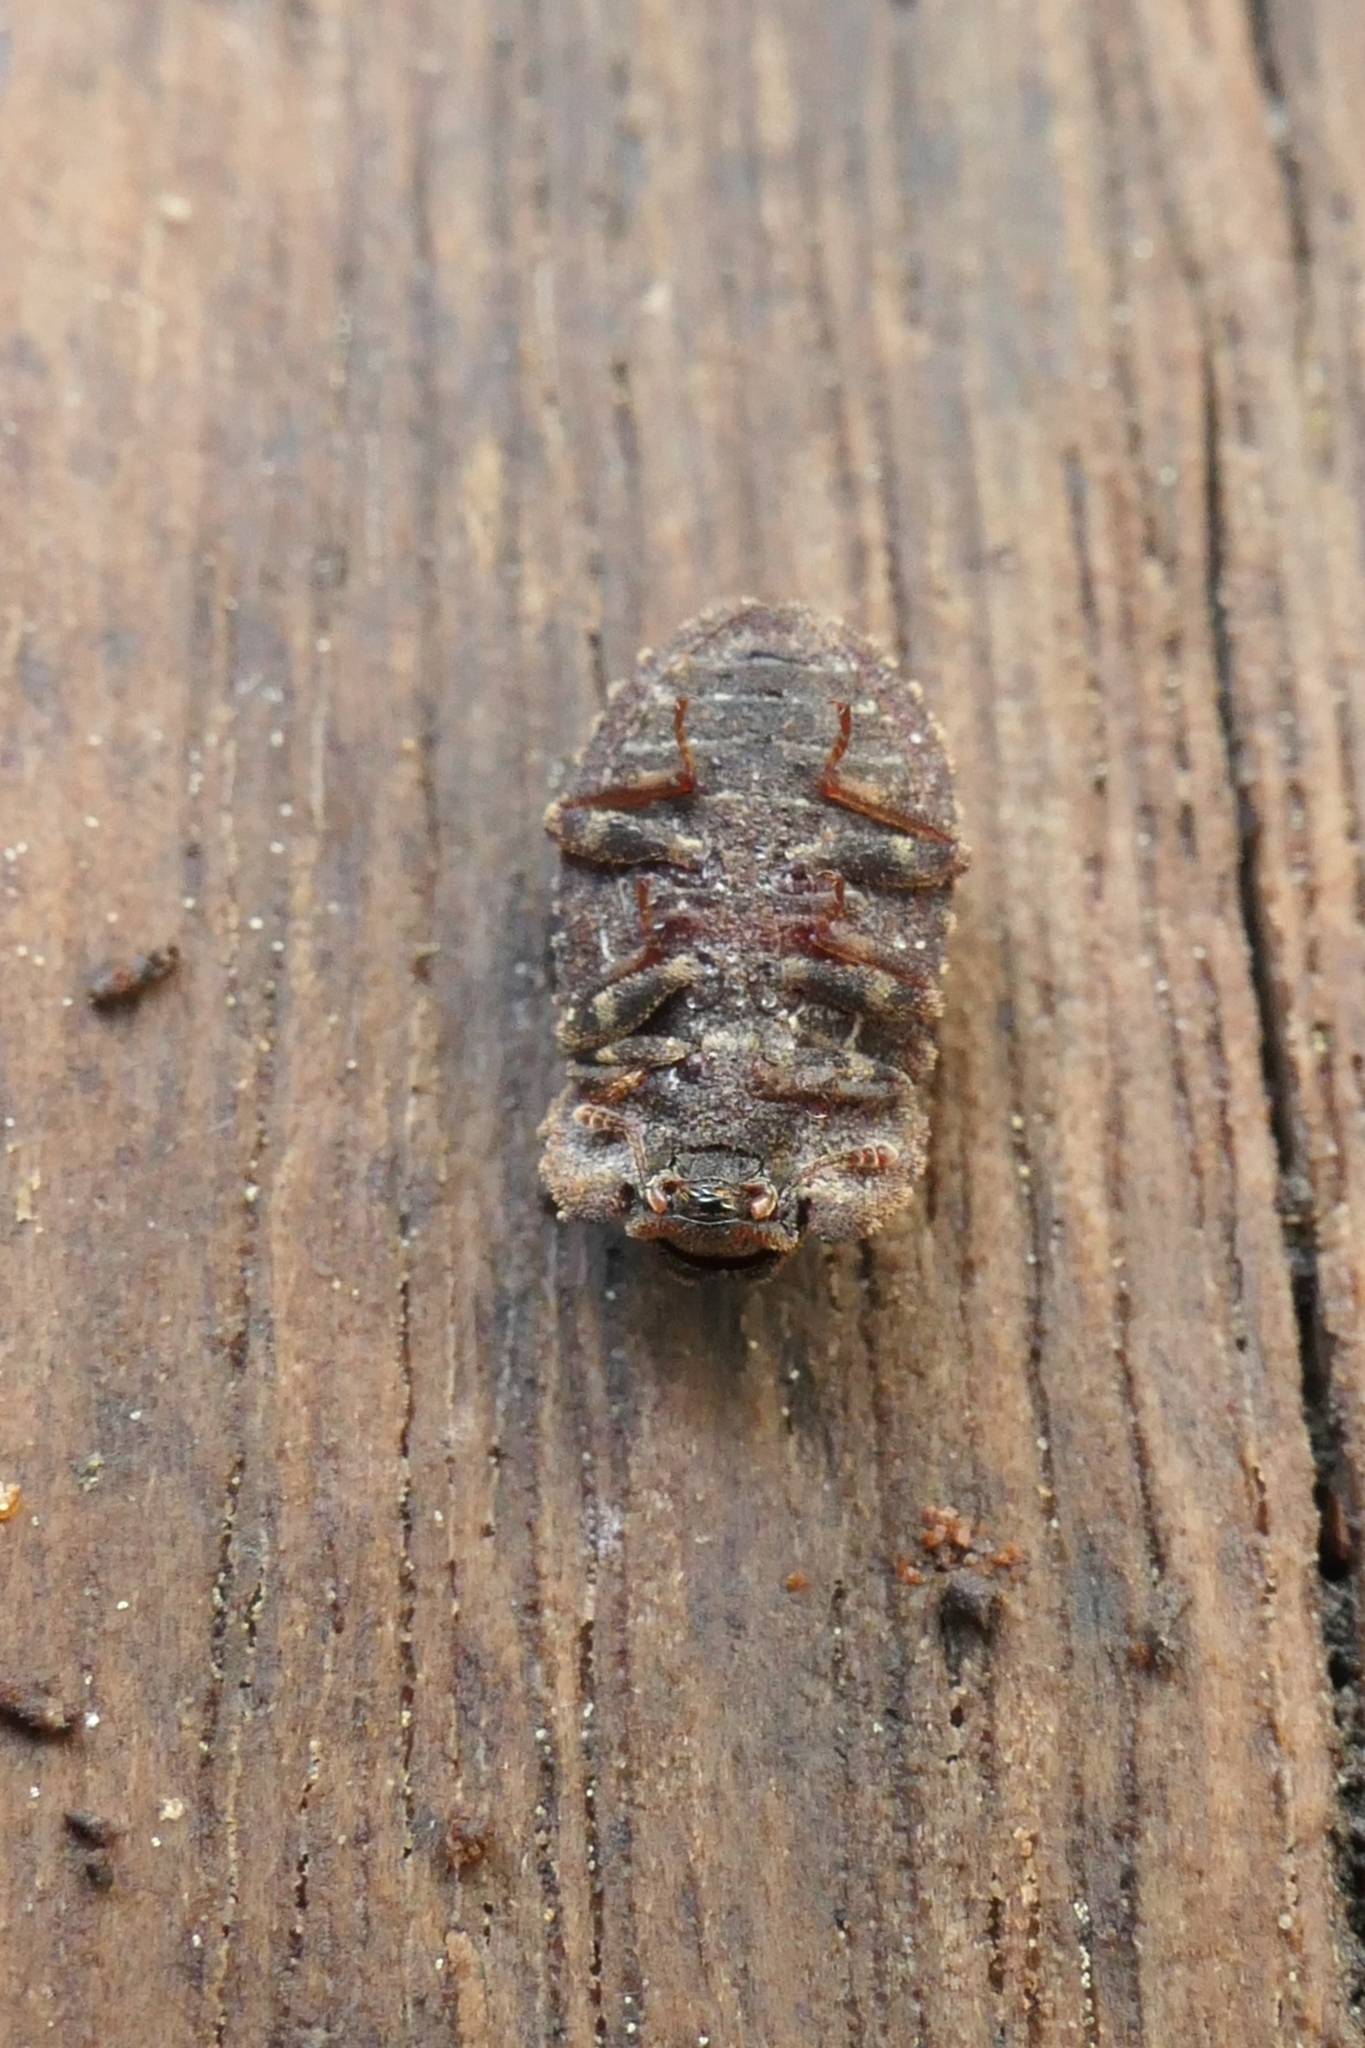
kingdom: Animalia
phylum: Arthropoda
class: Insecta
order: Coleoptera
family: Zopheridae
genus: Pristoderus
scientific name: Pristoderus
